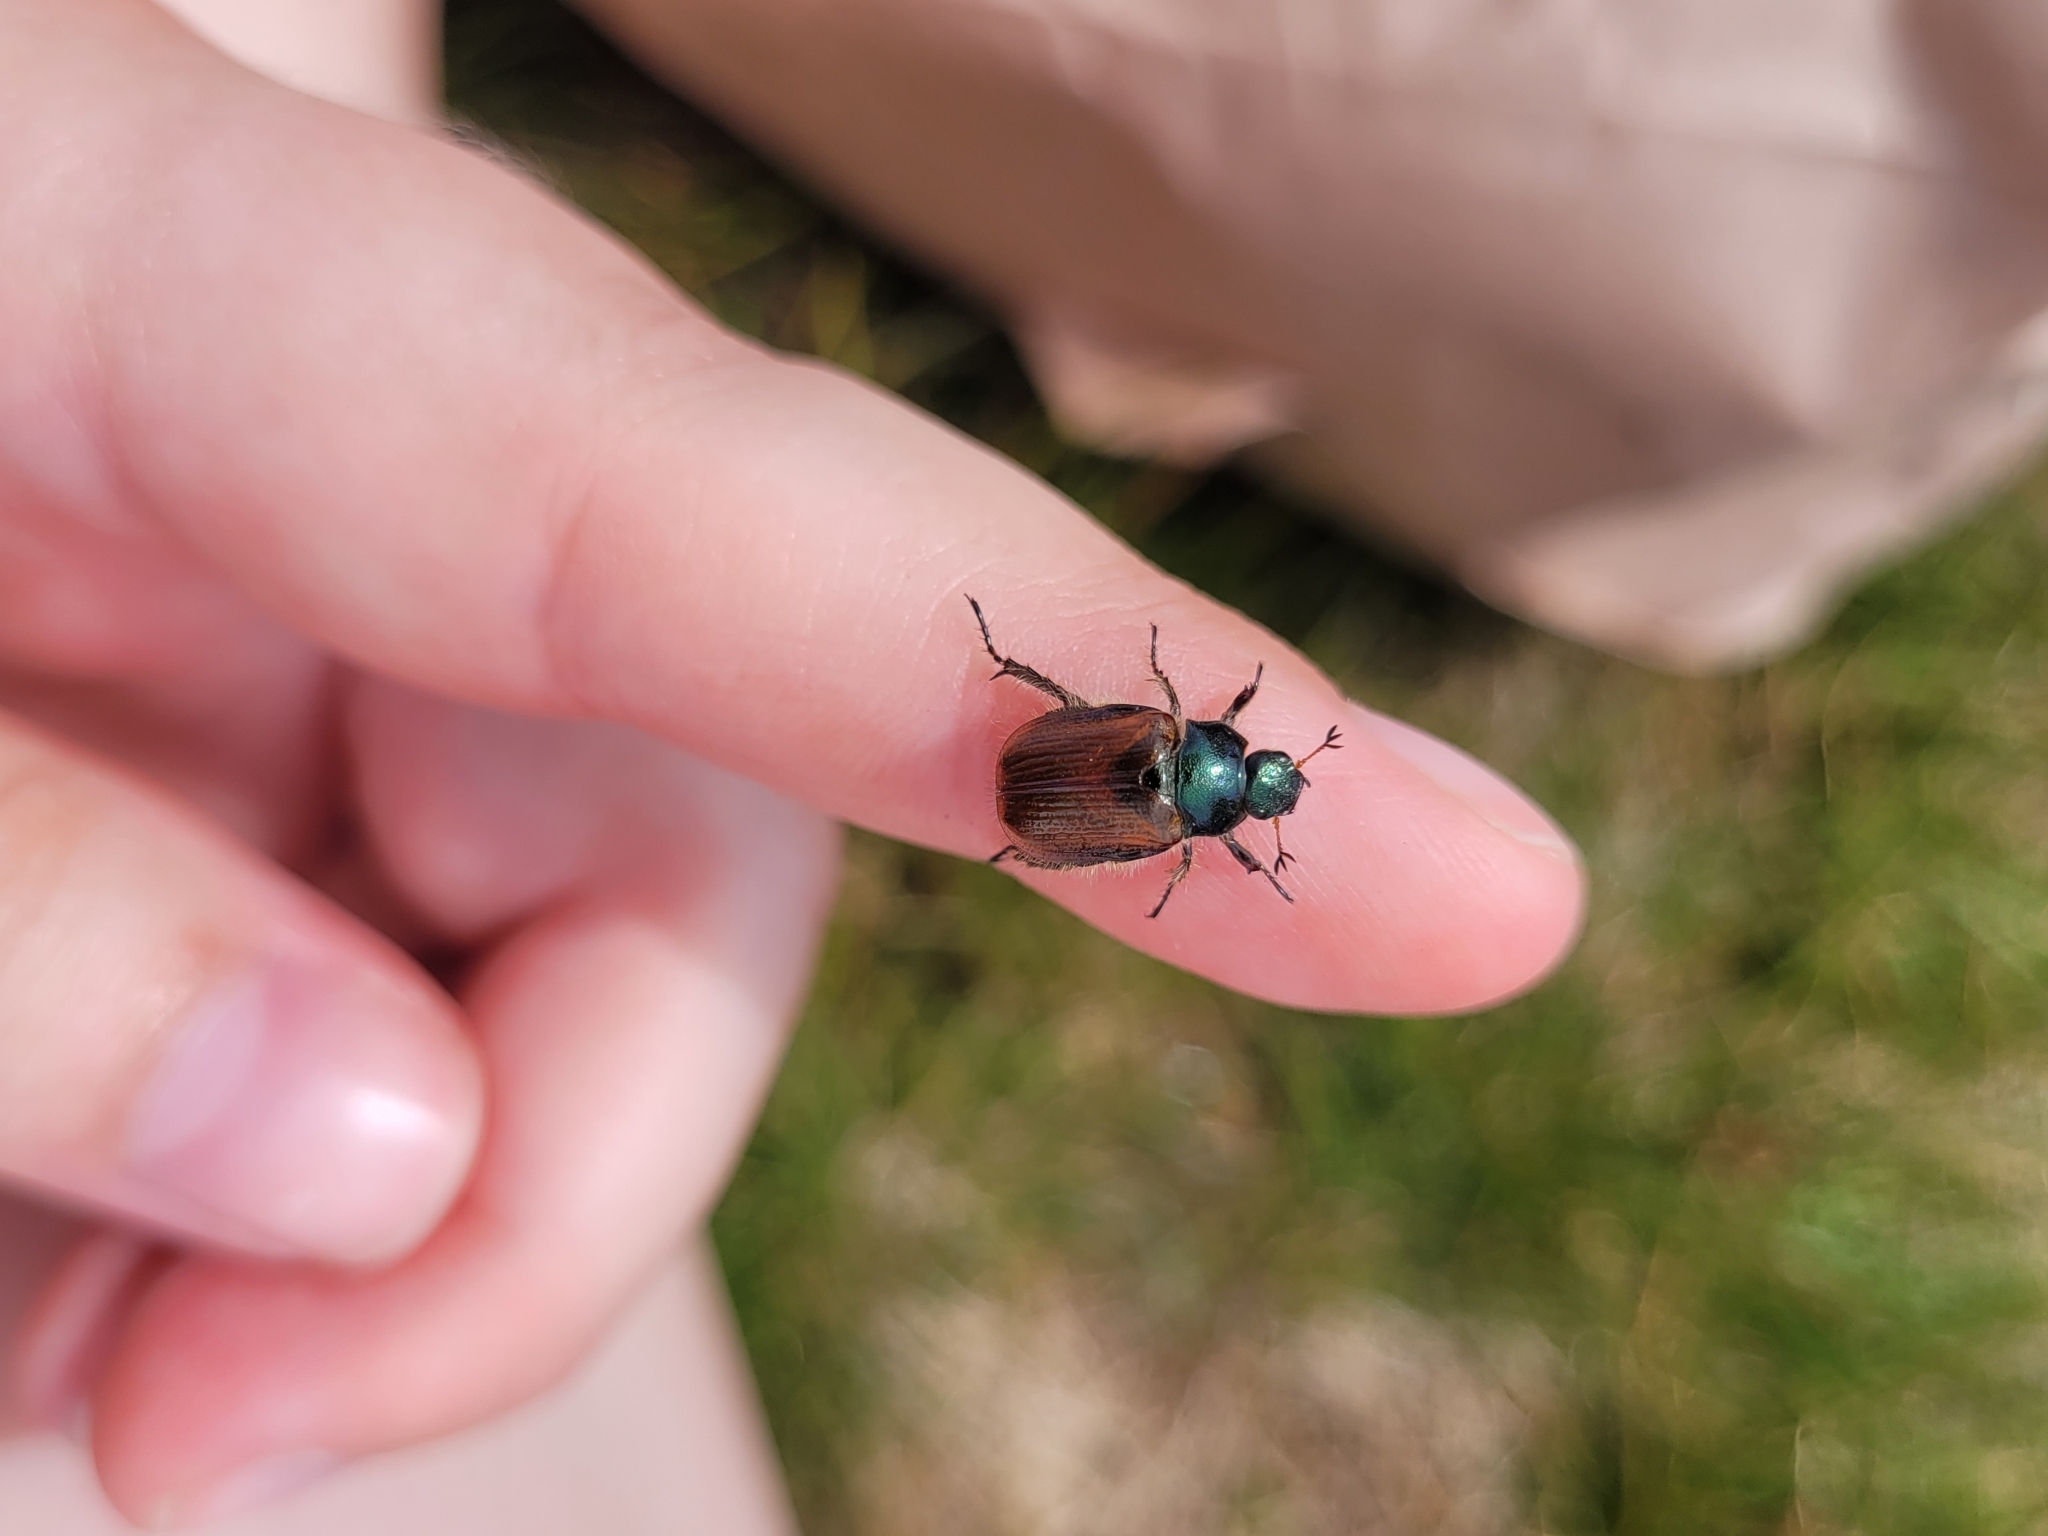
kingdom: Animalia
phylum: Arthropoda
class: Insecta
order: Coleoptera
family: Scarabaeidae
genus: Phyllopertha
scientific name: Phyllopertha horticola
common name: Garden chafer
